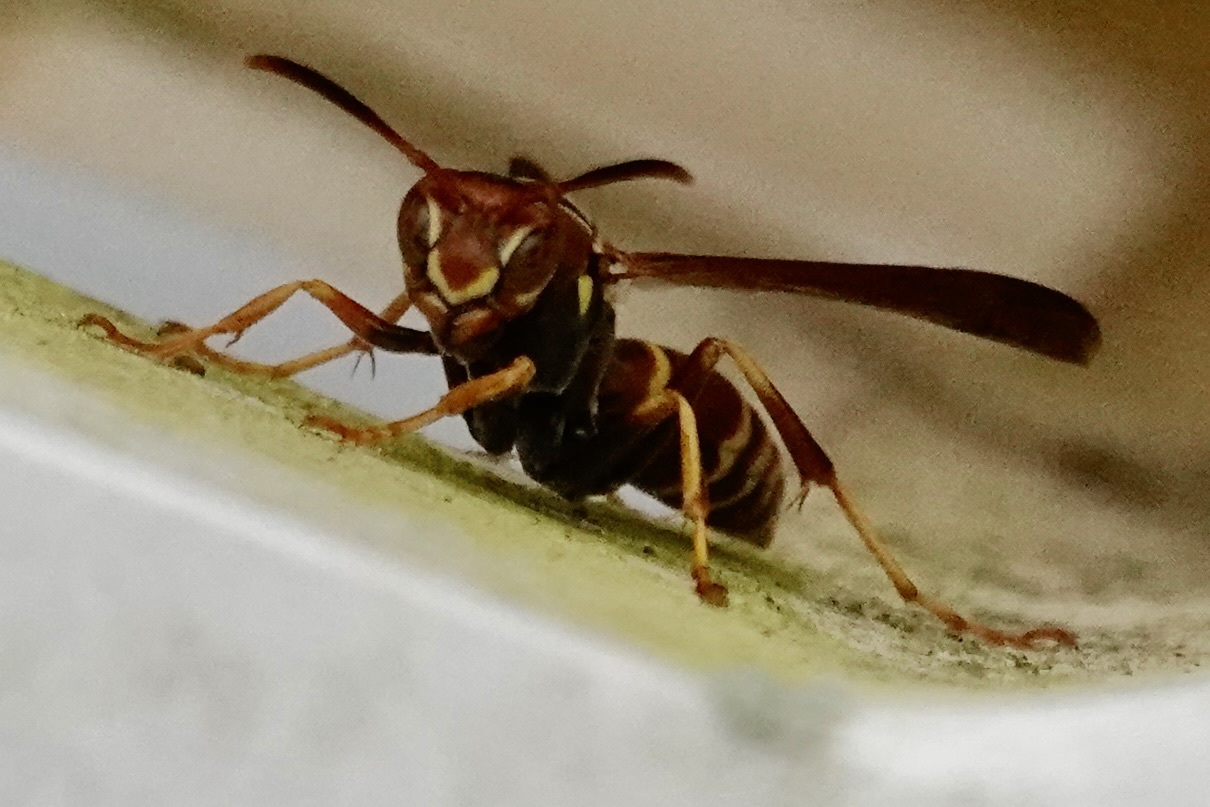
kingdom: Animalia
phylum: Arthropoda
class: Insecta
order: Hymenoptera
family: Eumenidae
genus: Polistes
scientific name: Polistes dorsalis
